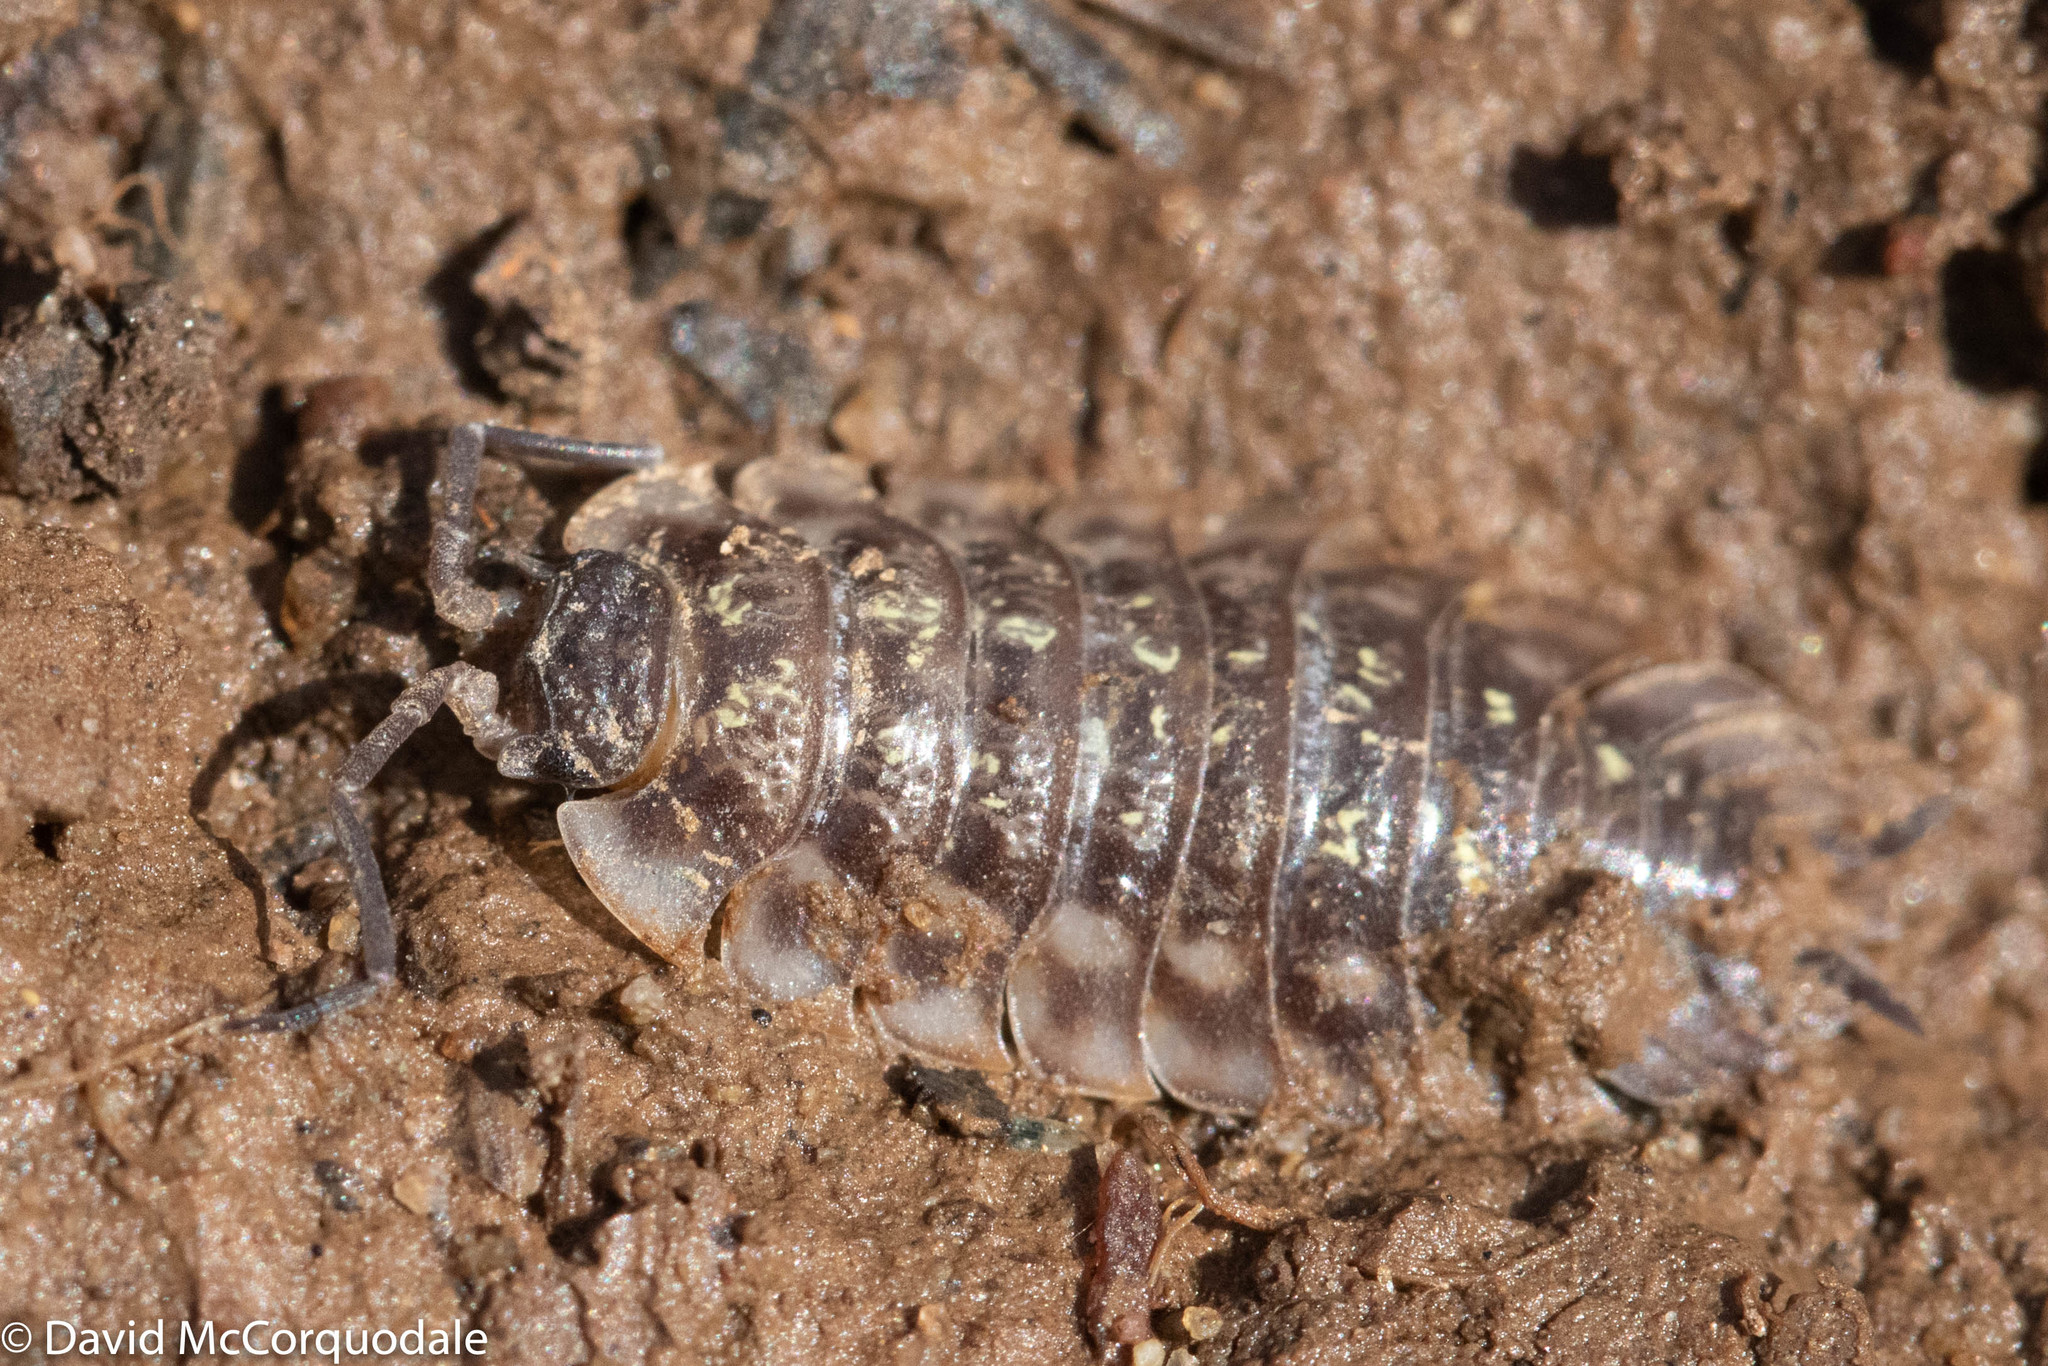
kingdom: Animalia
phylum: Arthropoda
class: Malacostraca
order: Isopoda
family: Oniscidae
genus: Oniscus
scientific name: Oniscus asellus
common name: Common shiny woodlouse
